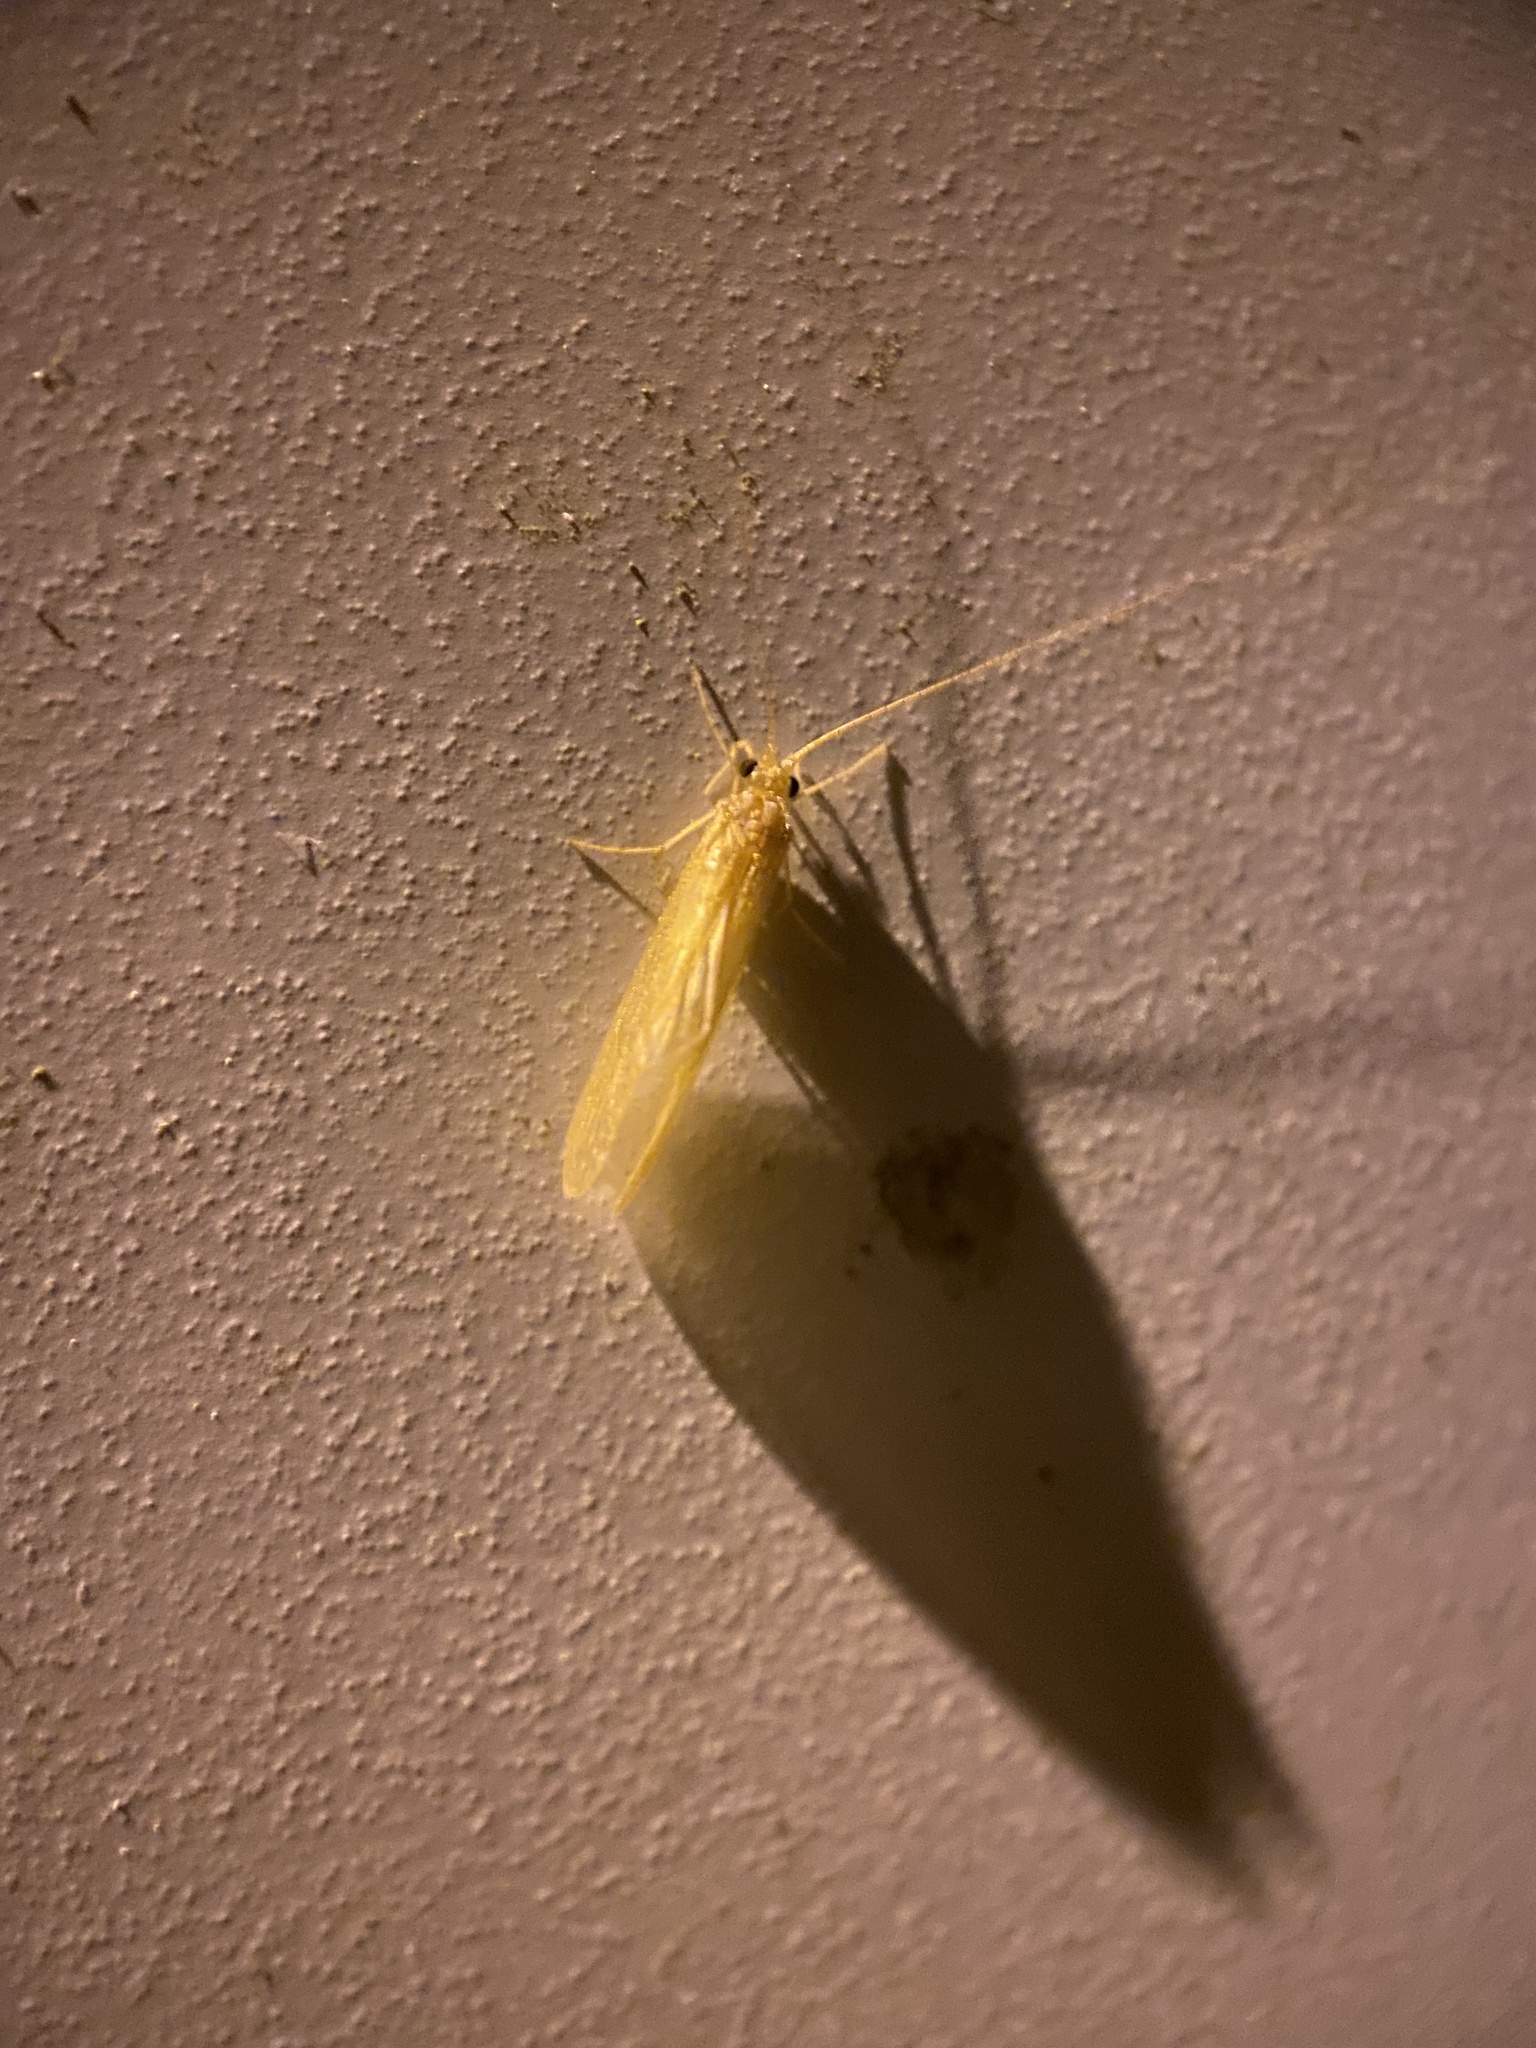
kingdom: Animalia
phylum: Arthropoda
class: Insecta
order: Trichoptera
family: Hydropsychidae
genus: Potamyia
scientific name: Potamyia flava
